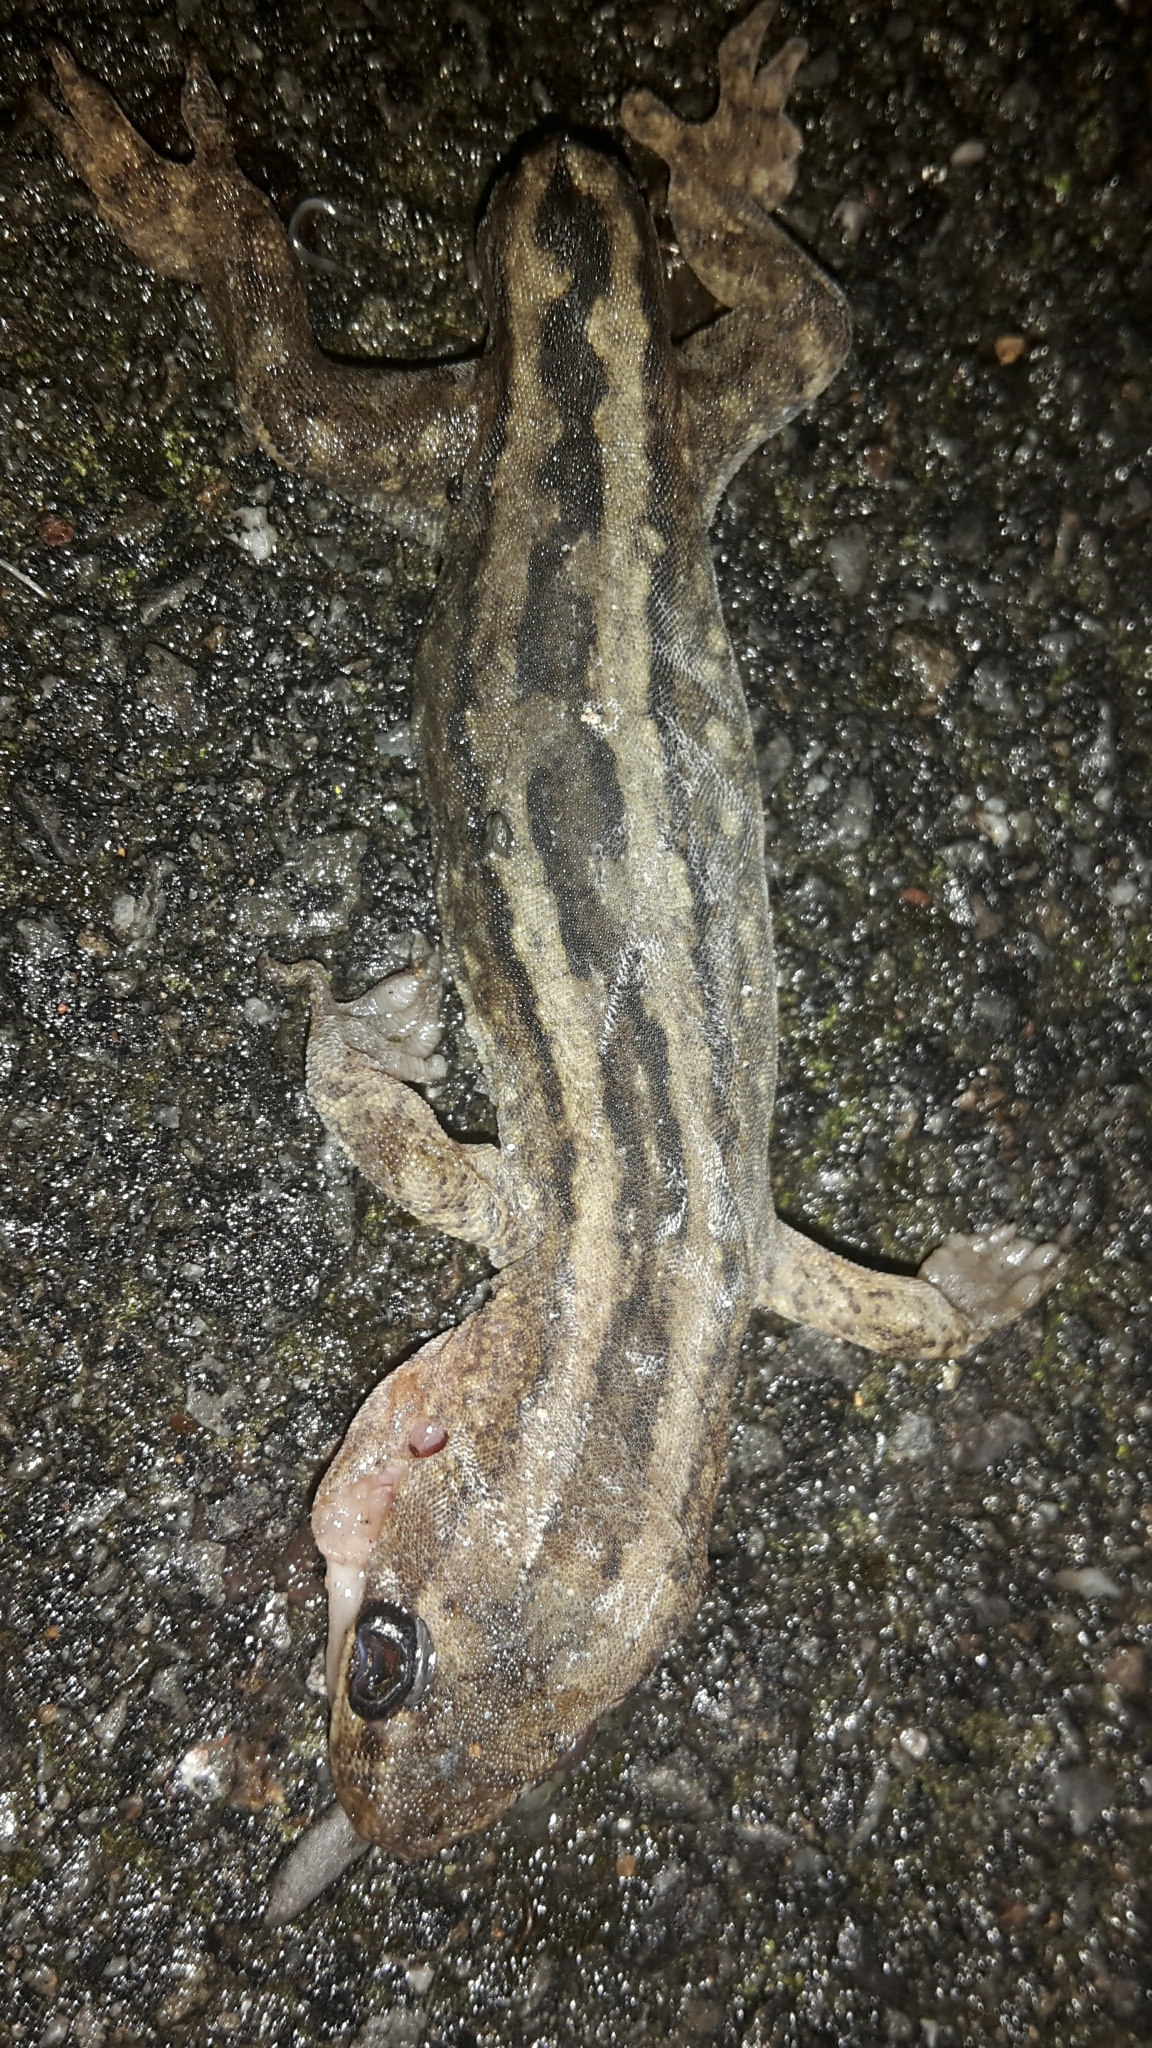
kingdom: Animalia
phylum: Chordata
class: Squamata
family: Diplodactylidae
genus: Woodworthia
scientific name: Woodworthia maculata
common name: Raukawa gecko
